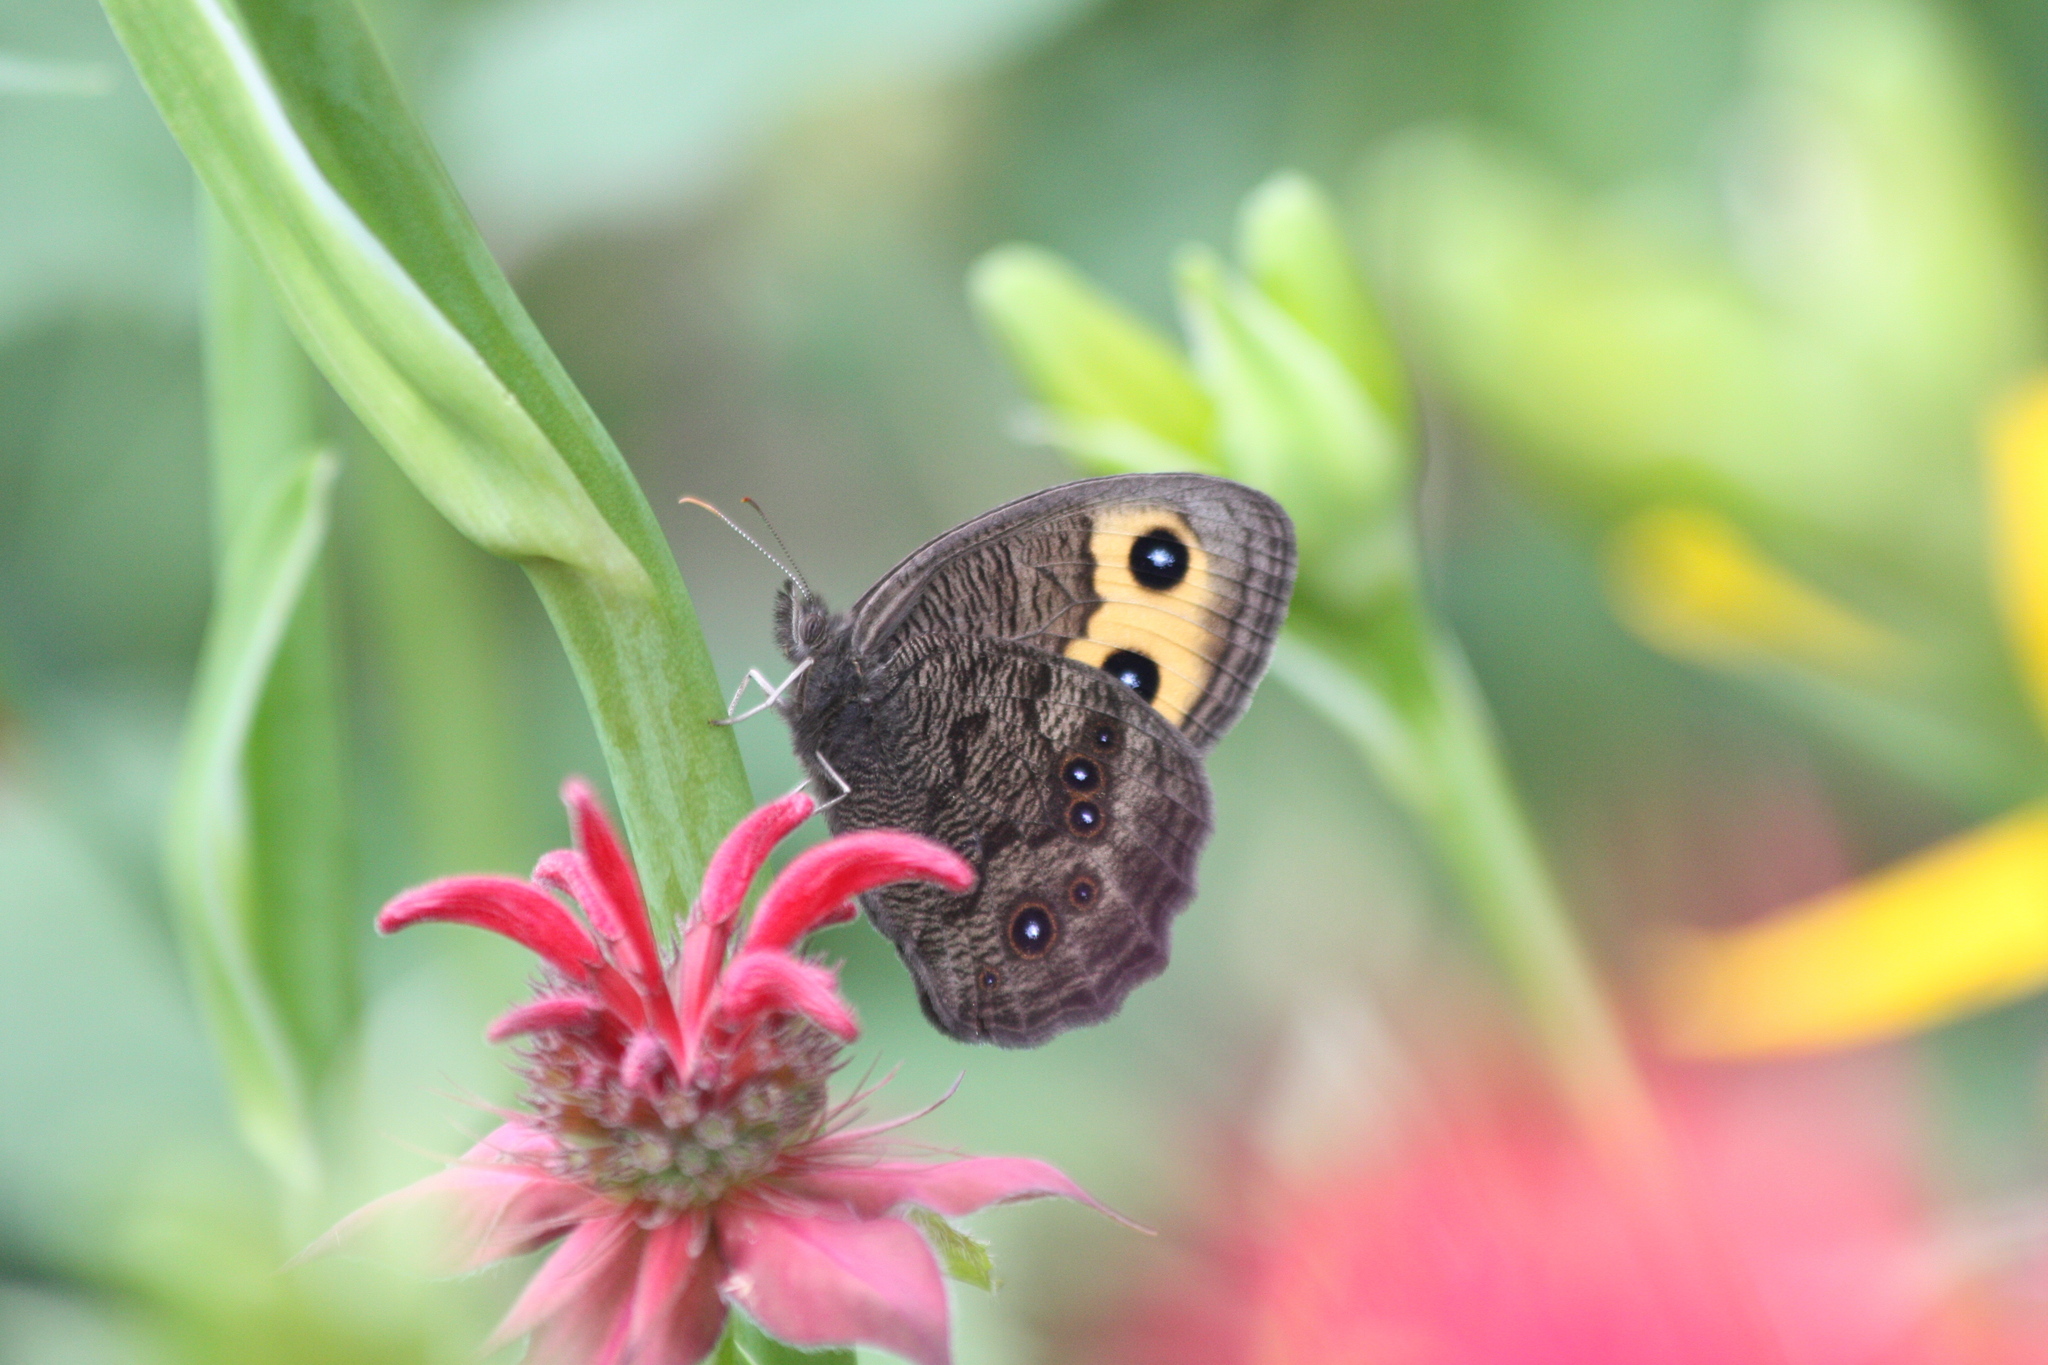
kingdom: Animalia
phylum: Arthropoda
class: Insecta
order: Lepidoptera
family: Nymphalidae
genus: Cercyonis
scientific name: Cercyonis pegala
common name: Common wood-nymph
